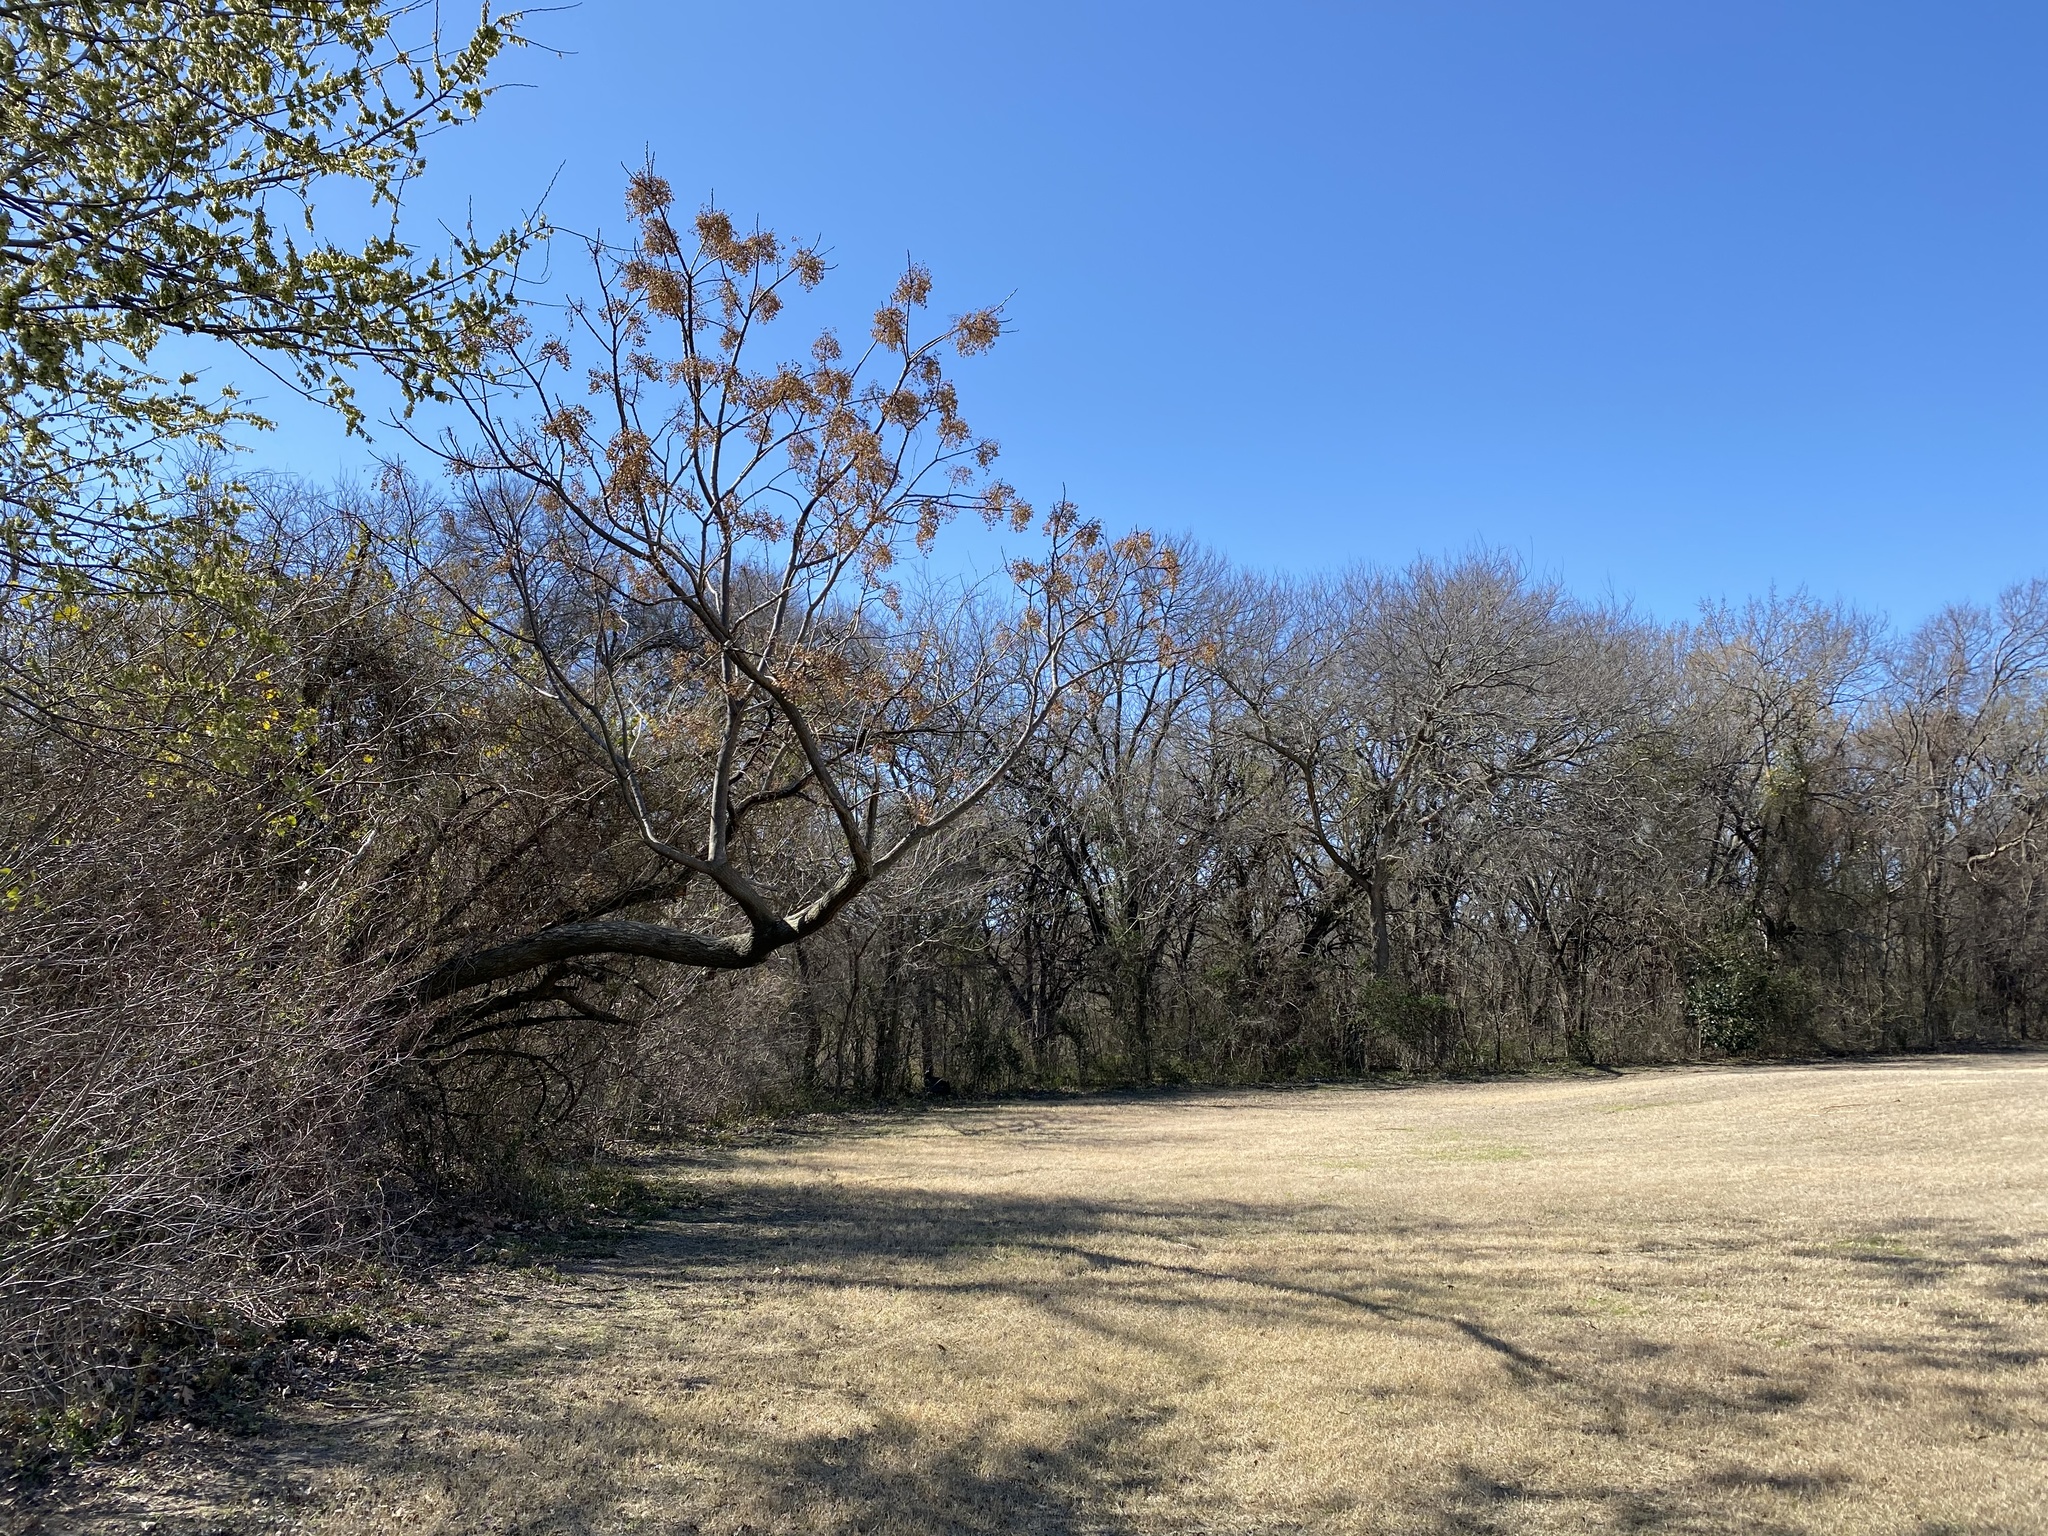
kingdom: Plantae
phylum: Tracheophyta
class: Magnoliopsida
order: Sapindales
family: Meliaceae
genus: Melia
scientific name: Melia azedarach
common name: Chinaberrytree
